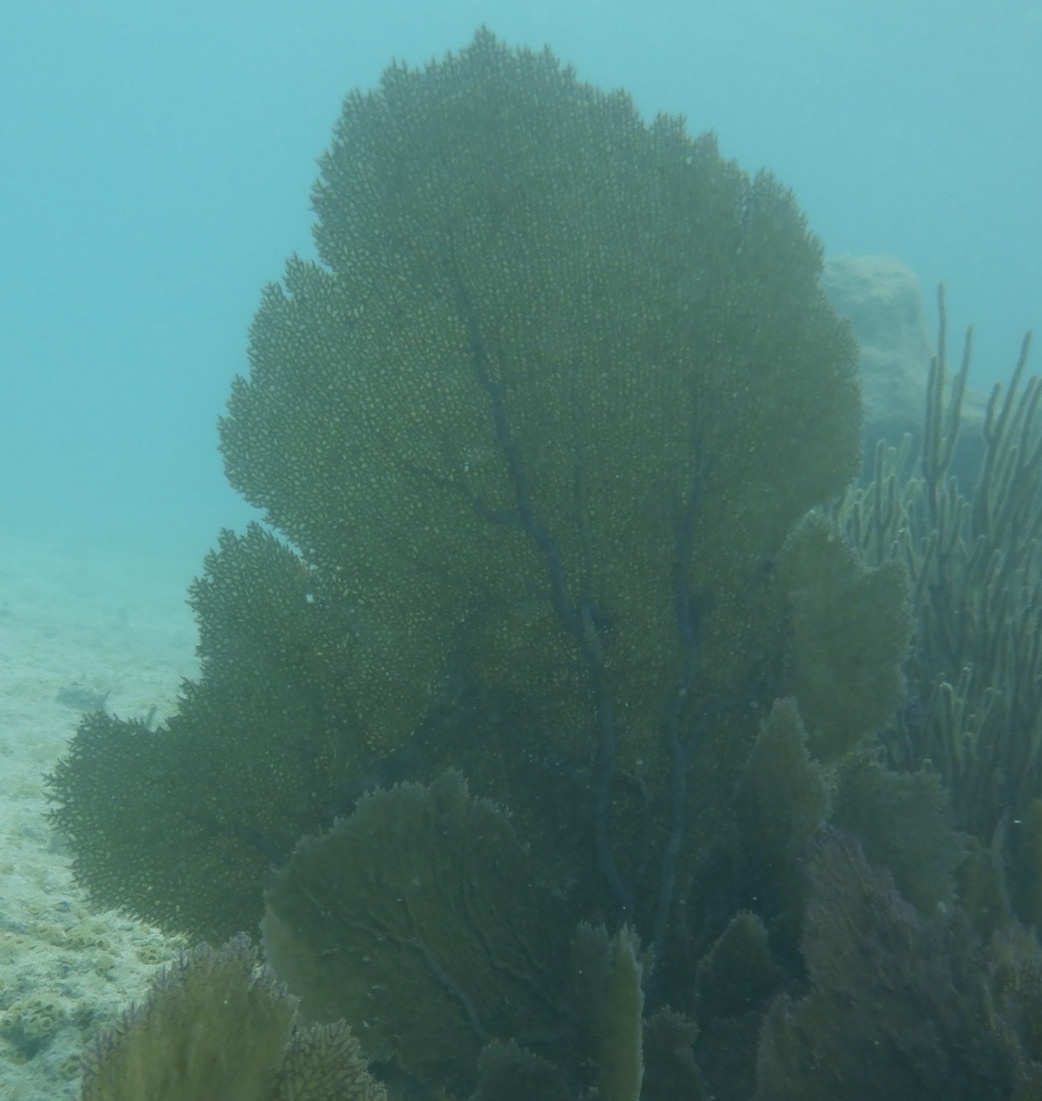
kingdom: Animalia
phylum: Cnidaria
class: Anthozoa
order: Malacalcyonacea
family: Gorgoniidae
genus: Gorgonia
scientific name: Gorgonia ventalina
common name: Common sea fan
